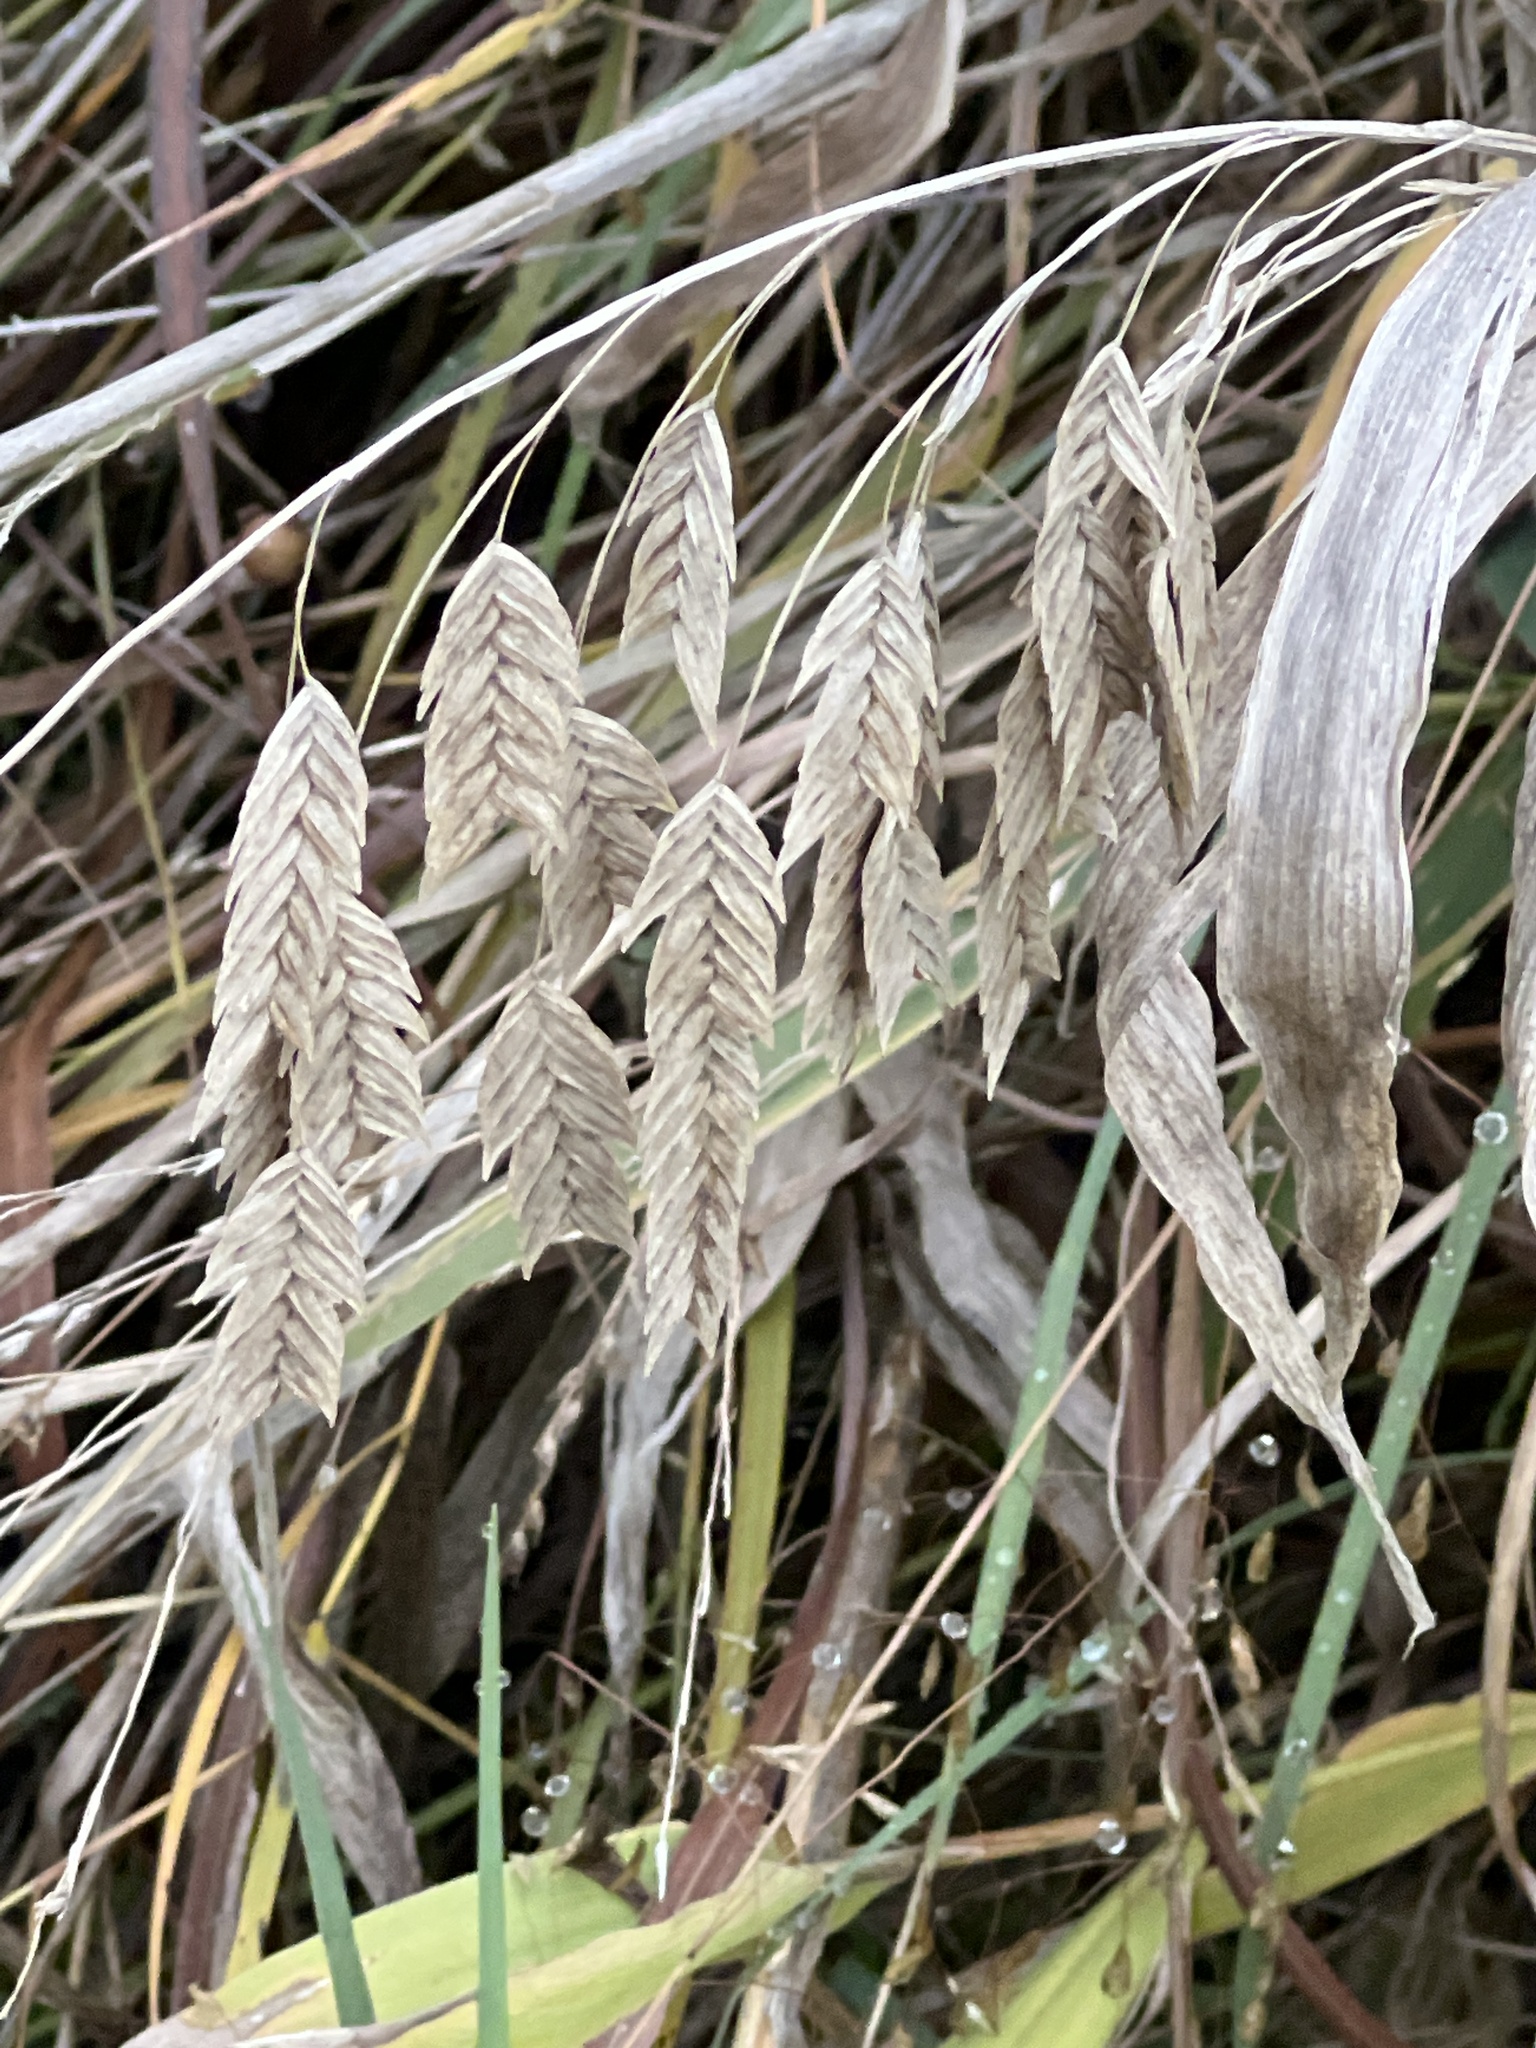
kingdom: Plantae
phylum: Tracheophyta
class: Liliopsida
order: Poales
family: Poaceae
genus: Chasmanthium
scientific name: Chasmanthium latifolium
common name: Broad-leaved chasmanthium
